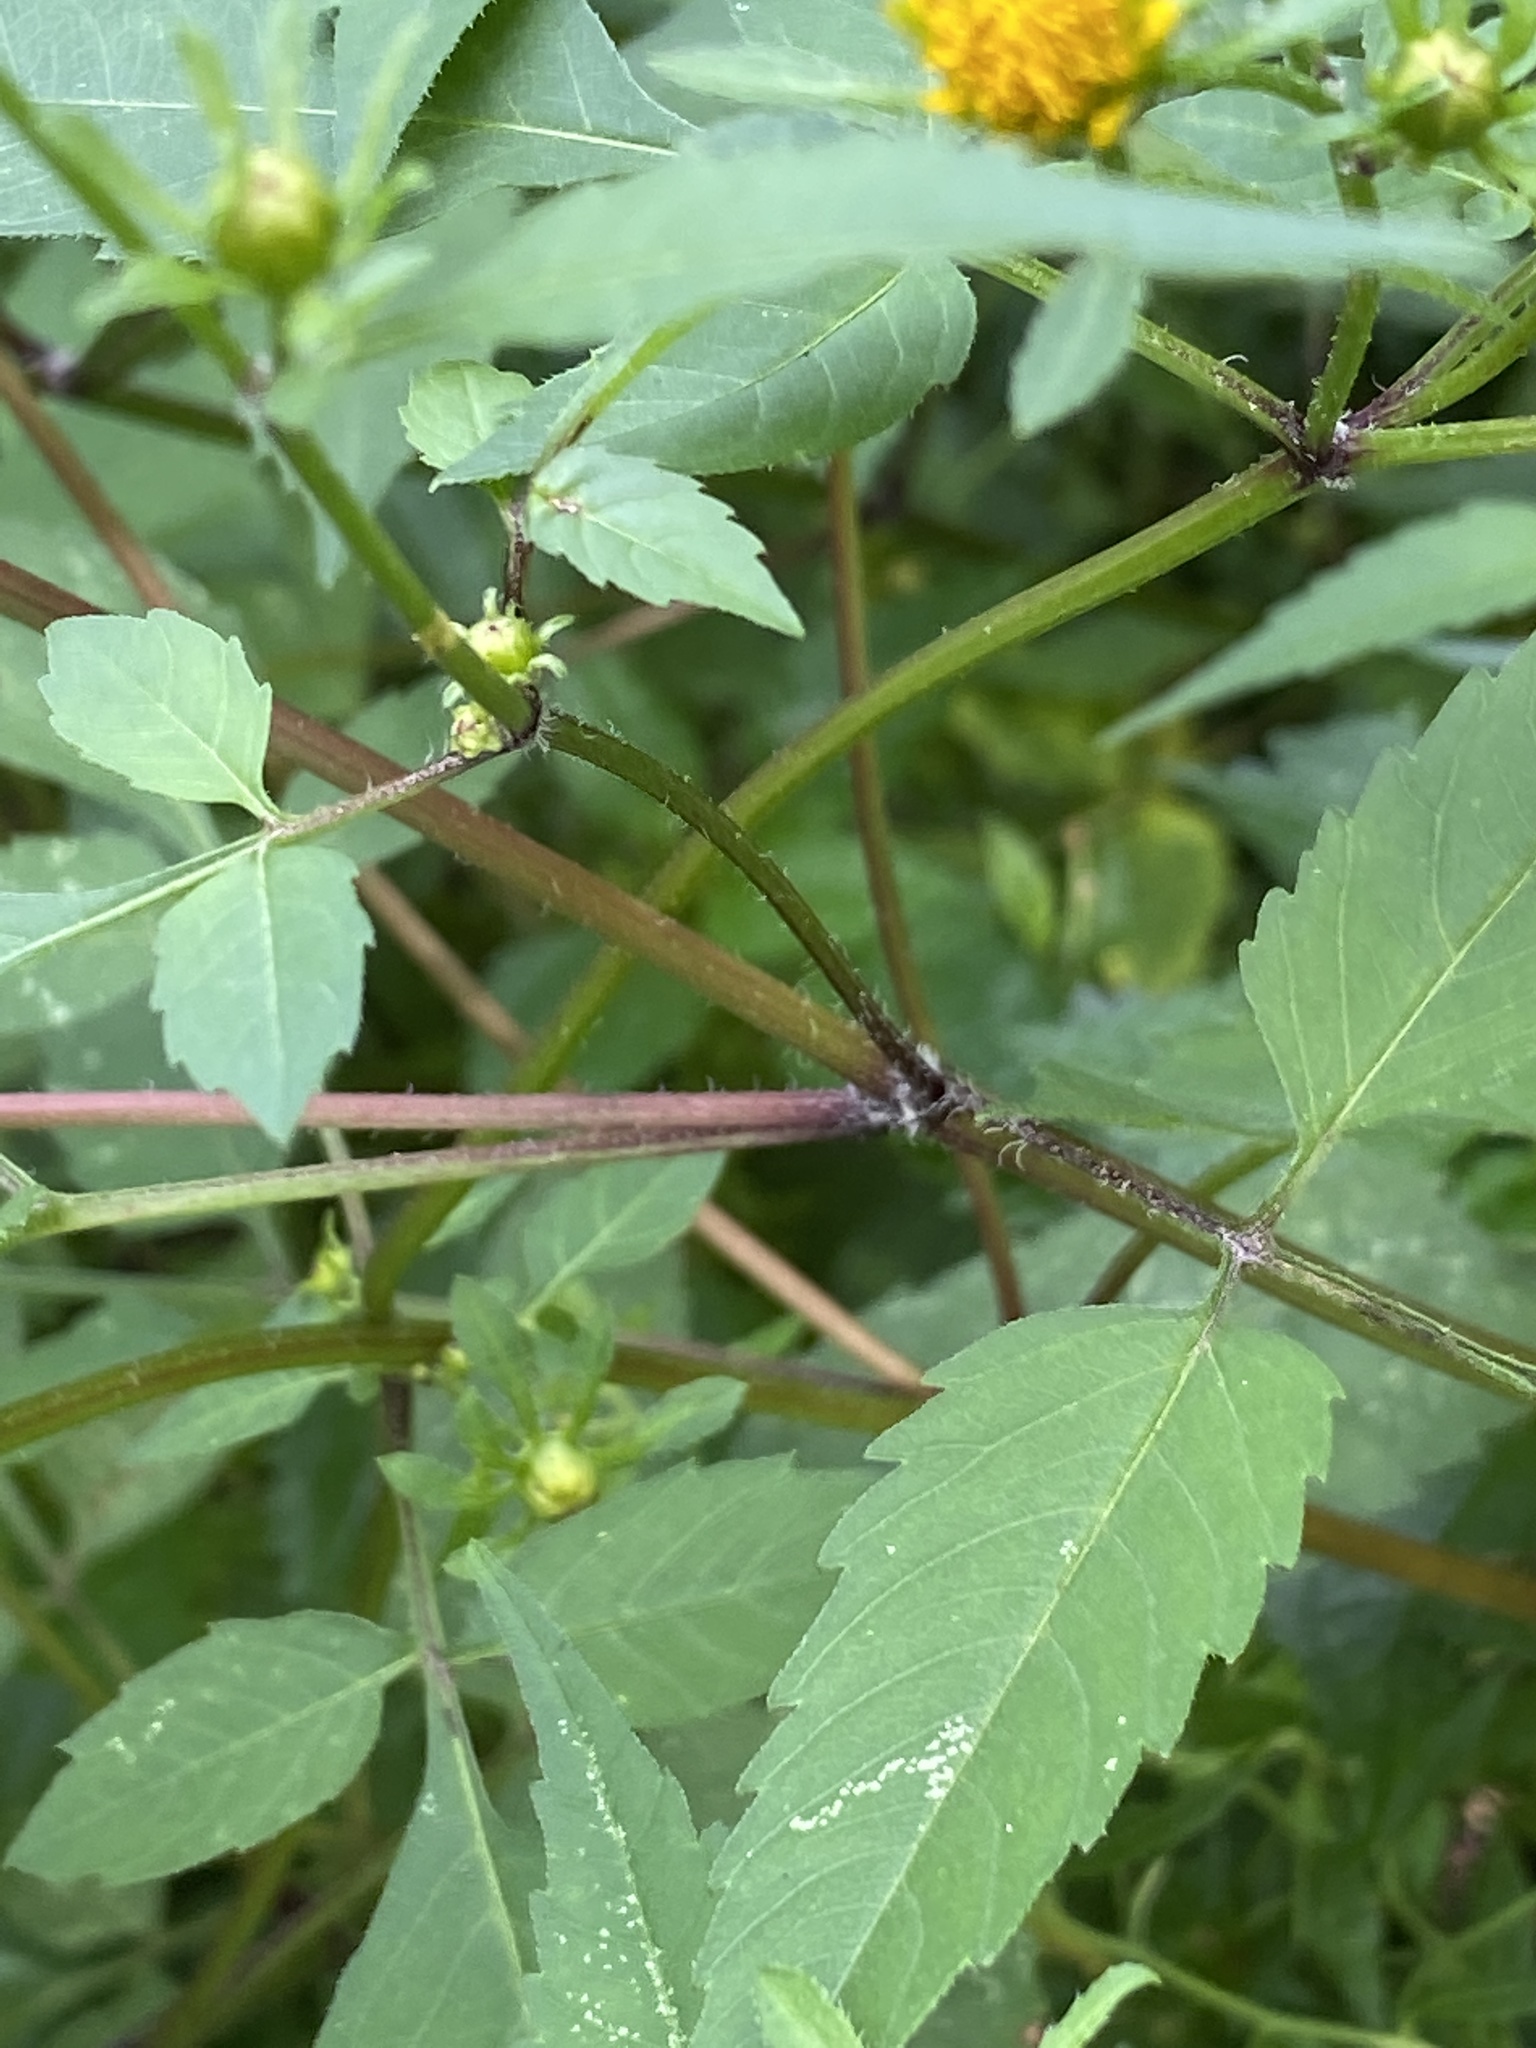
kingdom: Plantae
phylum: Tracheophyta
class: Magnoliopsida
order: Asterales
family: Asteraceae
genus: Bidens
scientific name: Bidens frondosa
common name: Beggarticks
